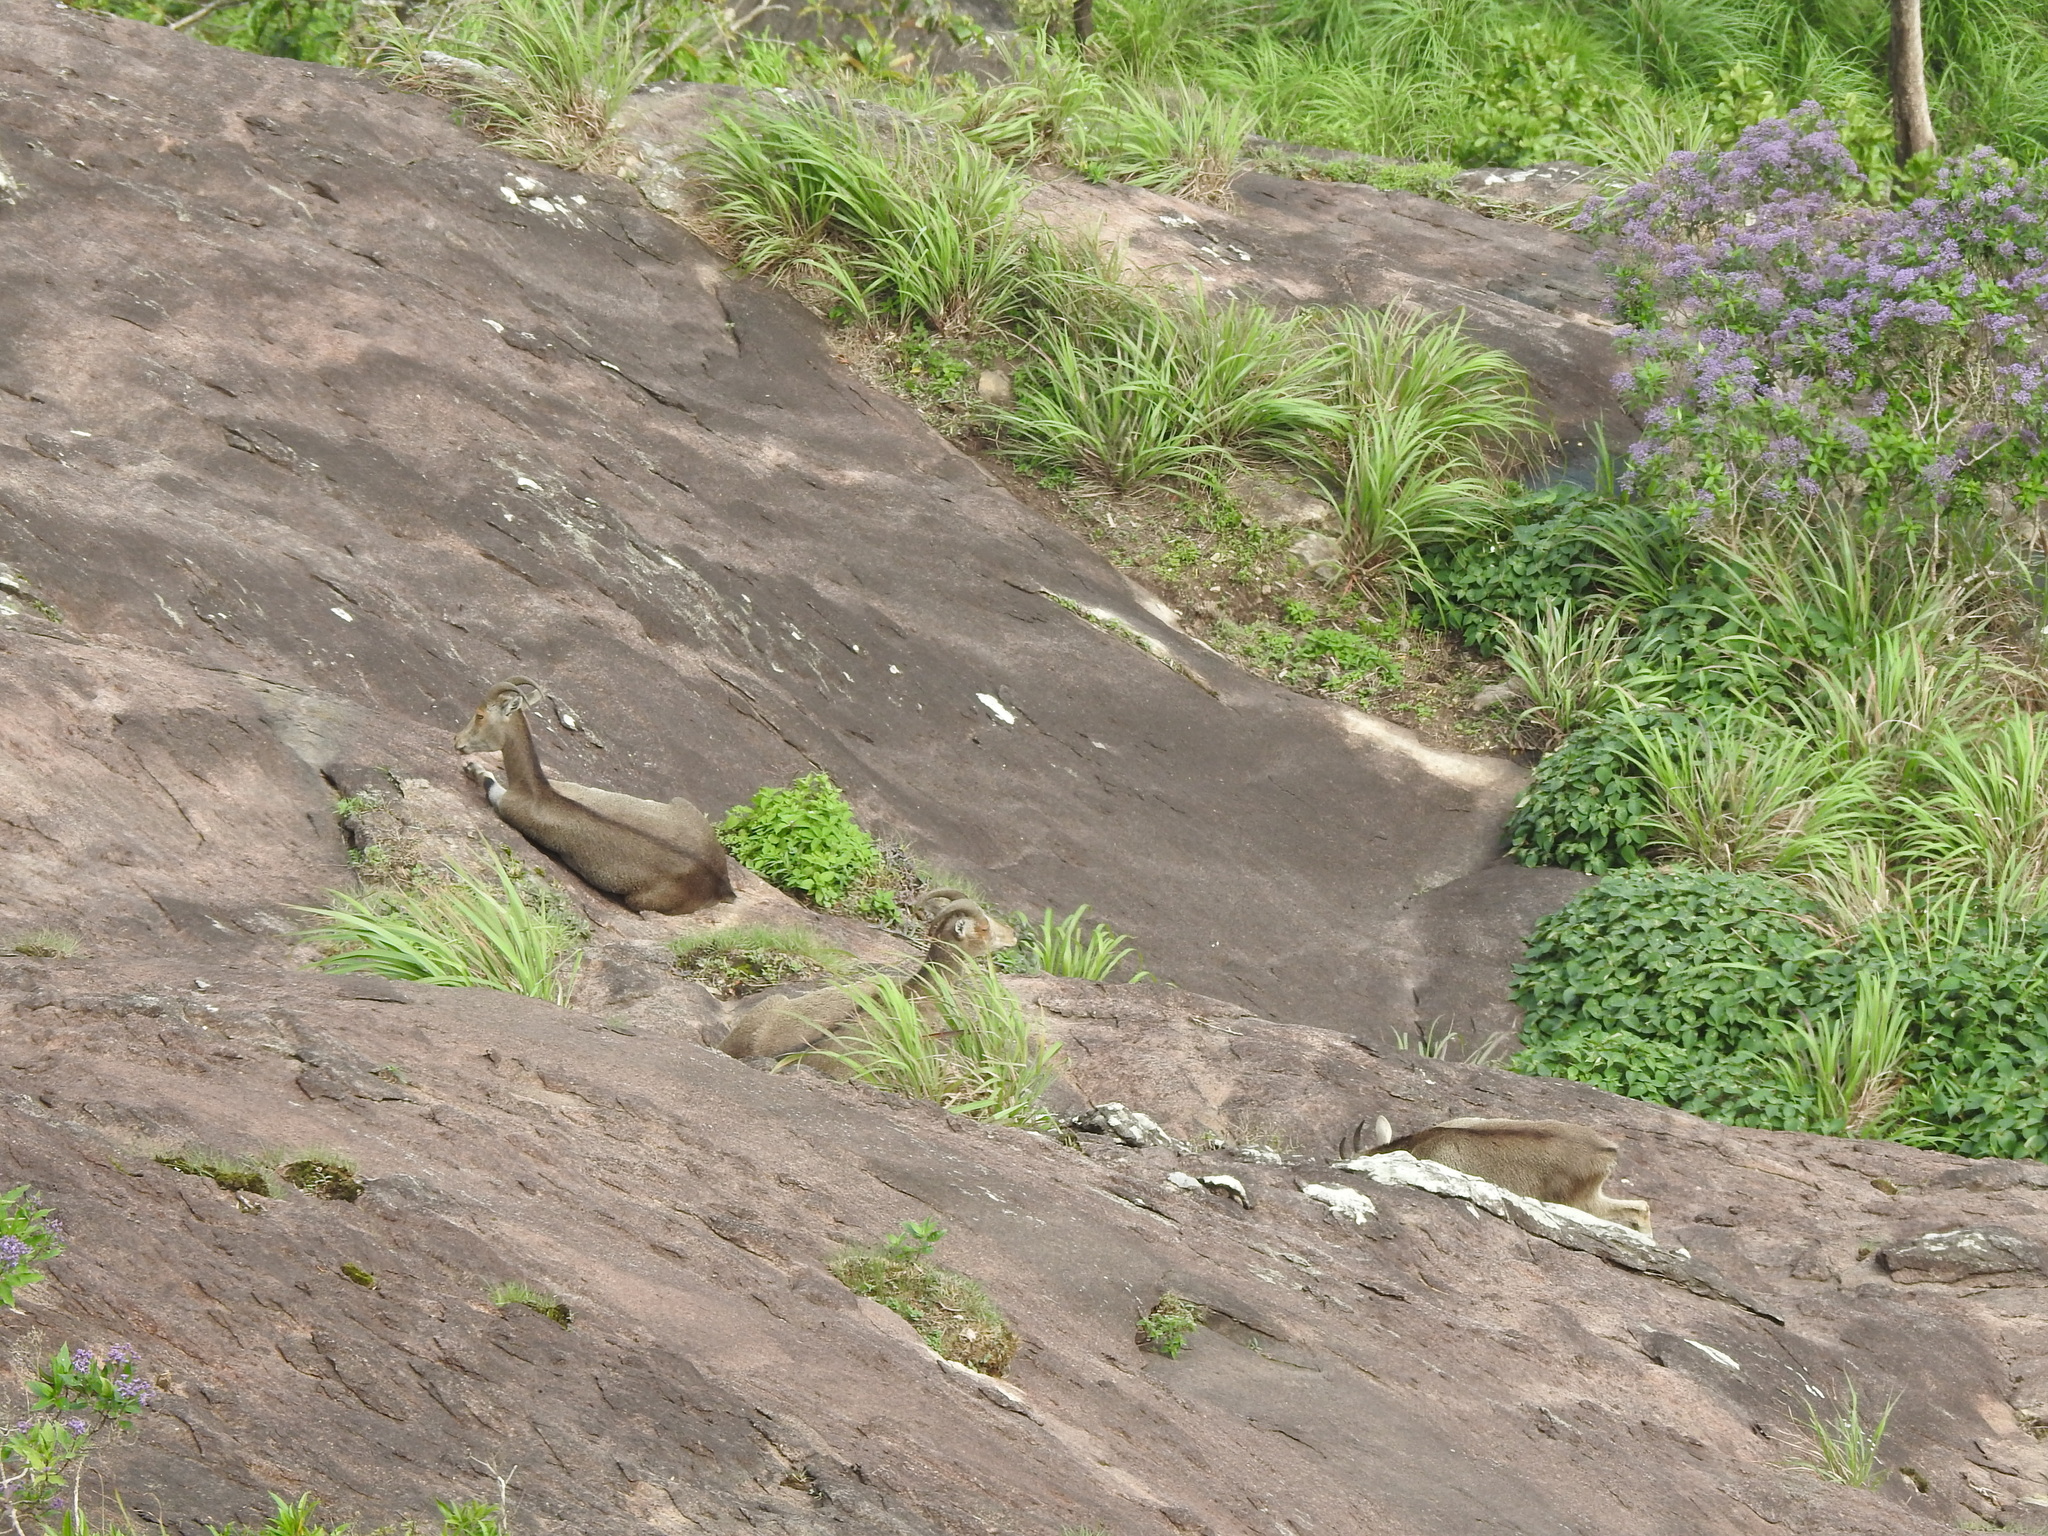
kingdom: Animalia
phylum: Chordata
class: Mammalia
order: Artiodactyla
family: Bovidae
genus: Hemitragus
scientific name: Hemitragus hylocrius
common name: Nilgiri tahr
